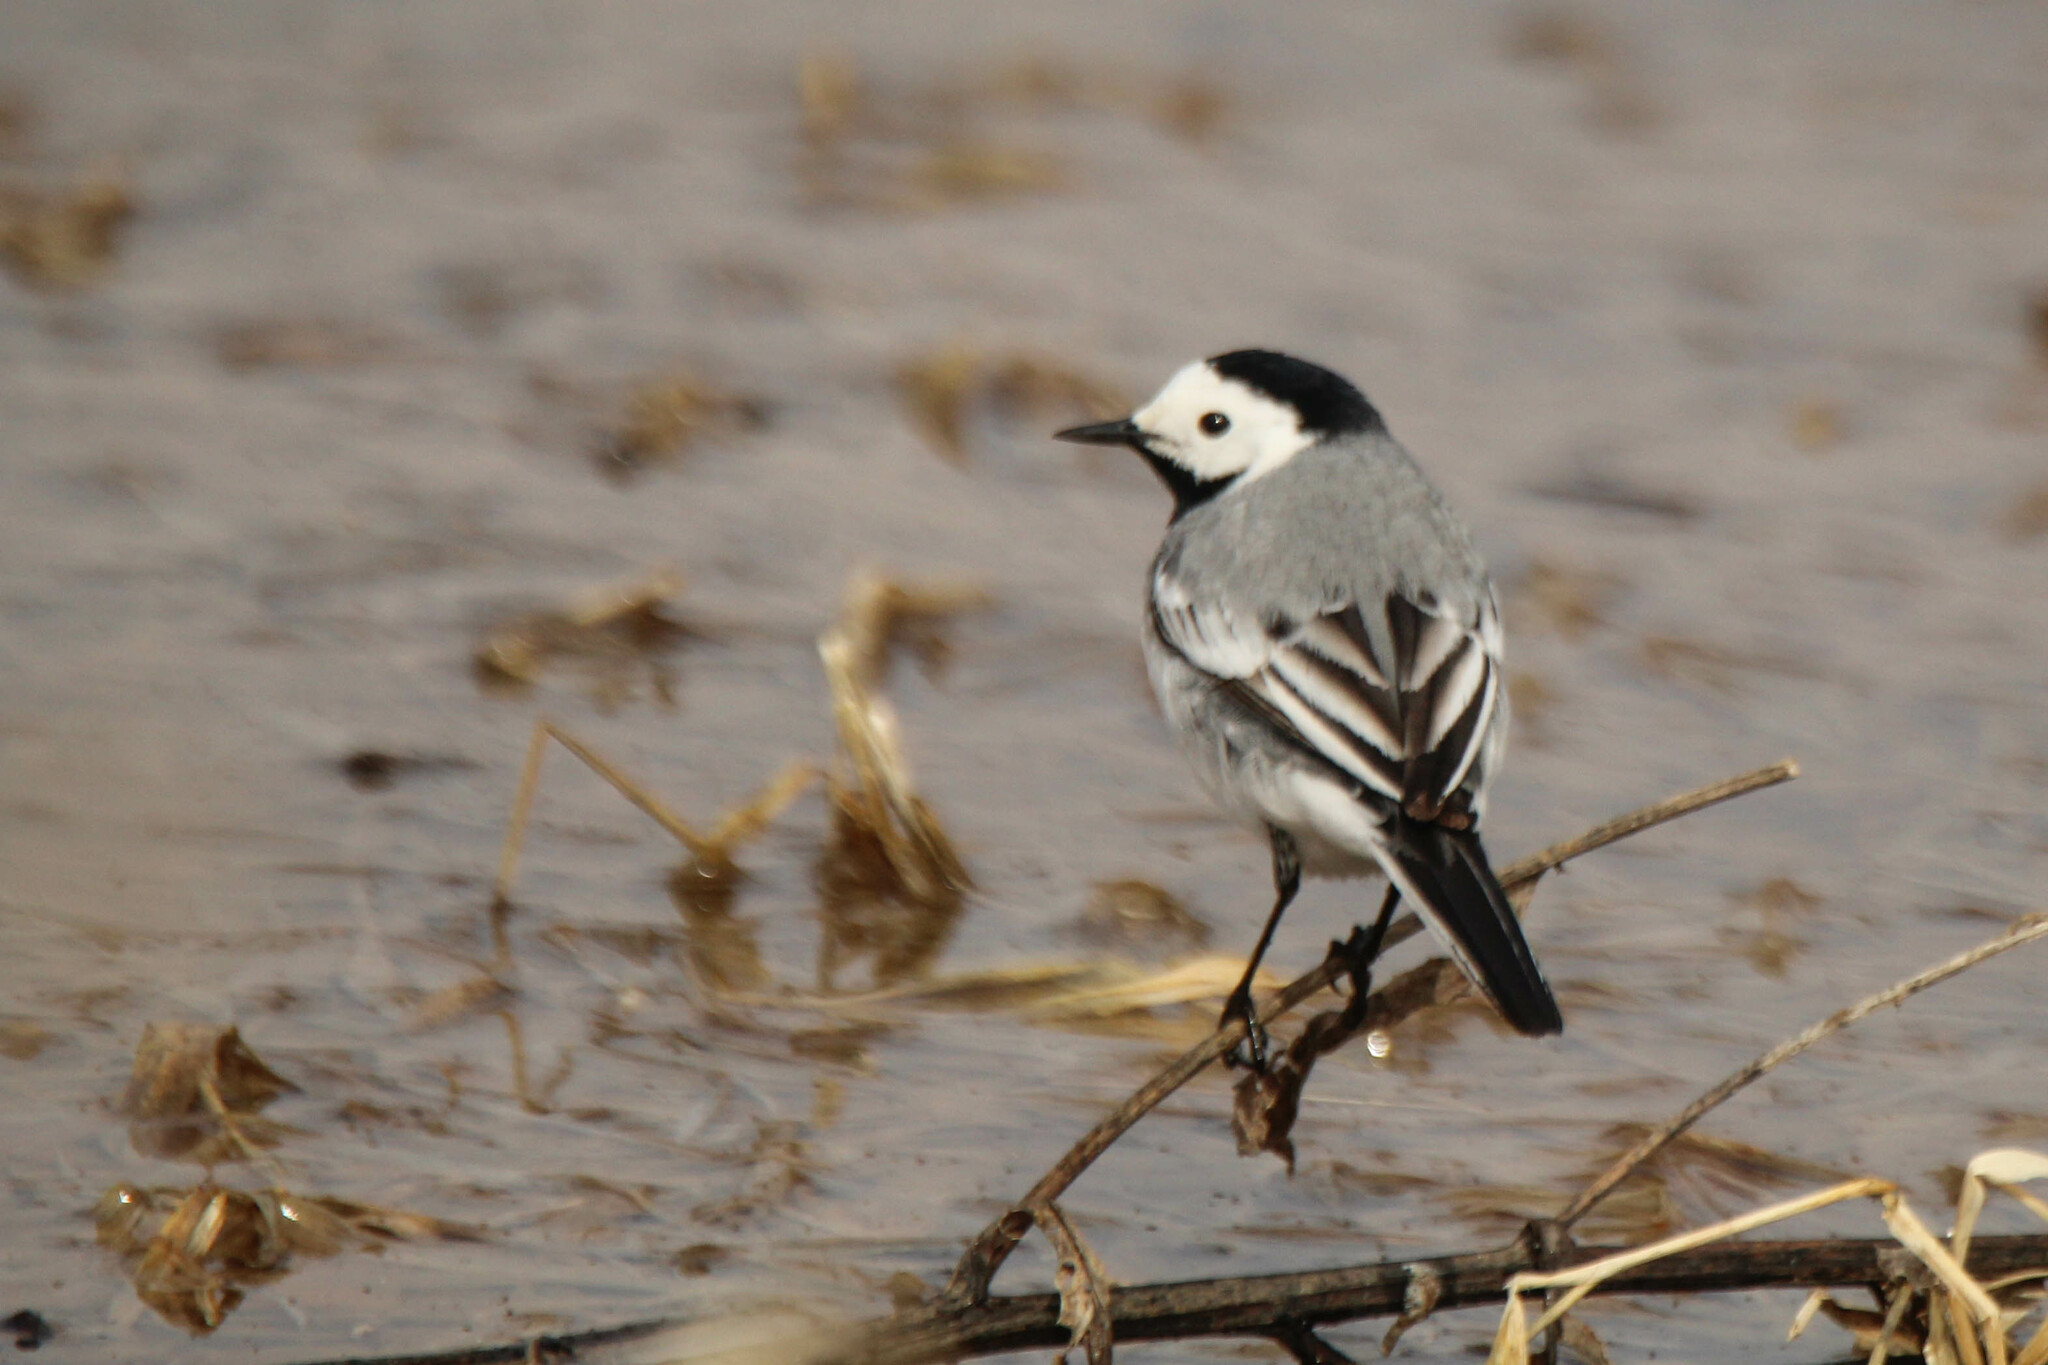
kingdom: Animalia
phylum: Chordata
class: Aves
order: Passeriformes
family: Motacillidae
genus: Motacilla
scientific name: Motacilla alba
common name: White wagtail
